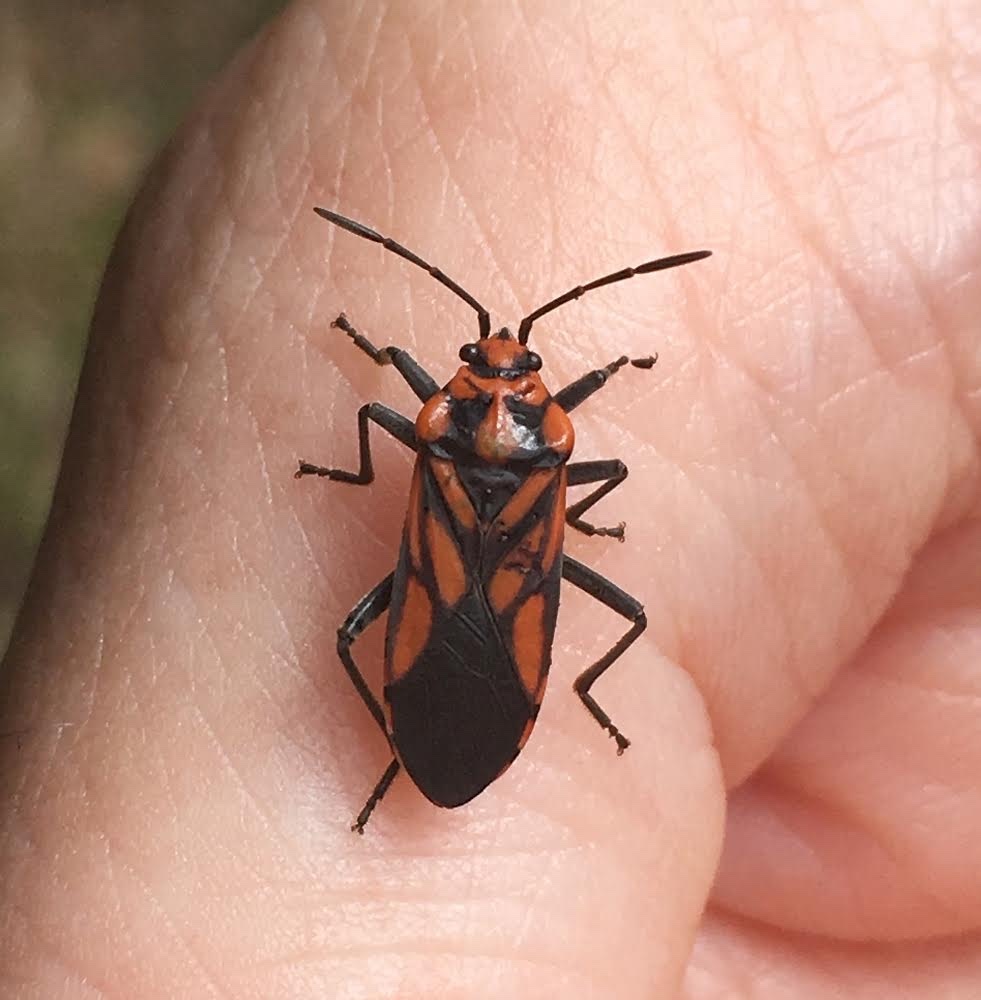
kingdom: Animalia
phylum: Arthropoda
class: Insecta
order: Hemiptera
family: Lygaeidae
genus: Spilostethus
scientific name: Spilostethus decoratus
